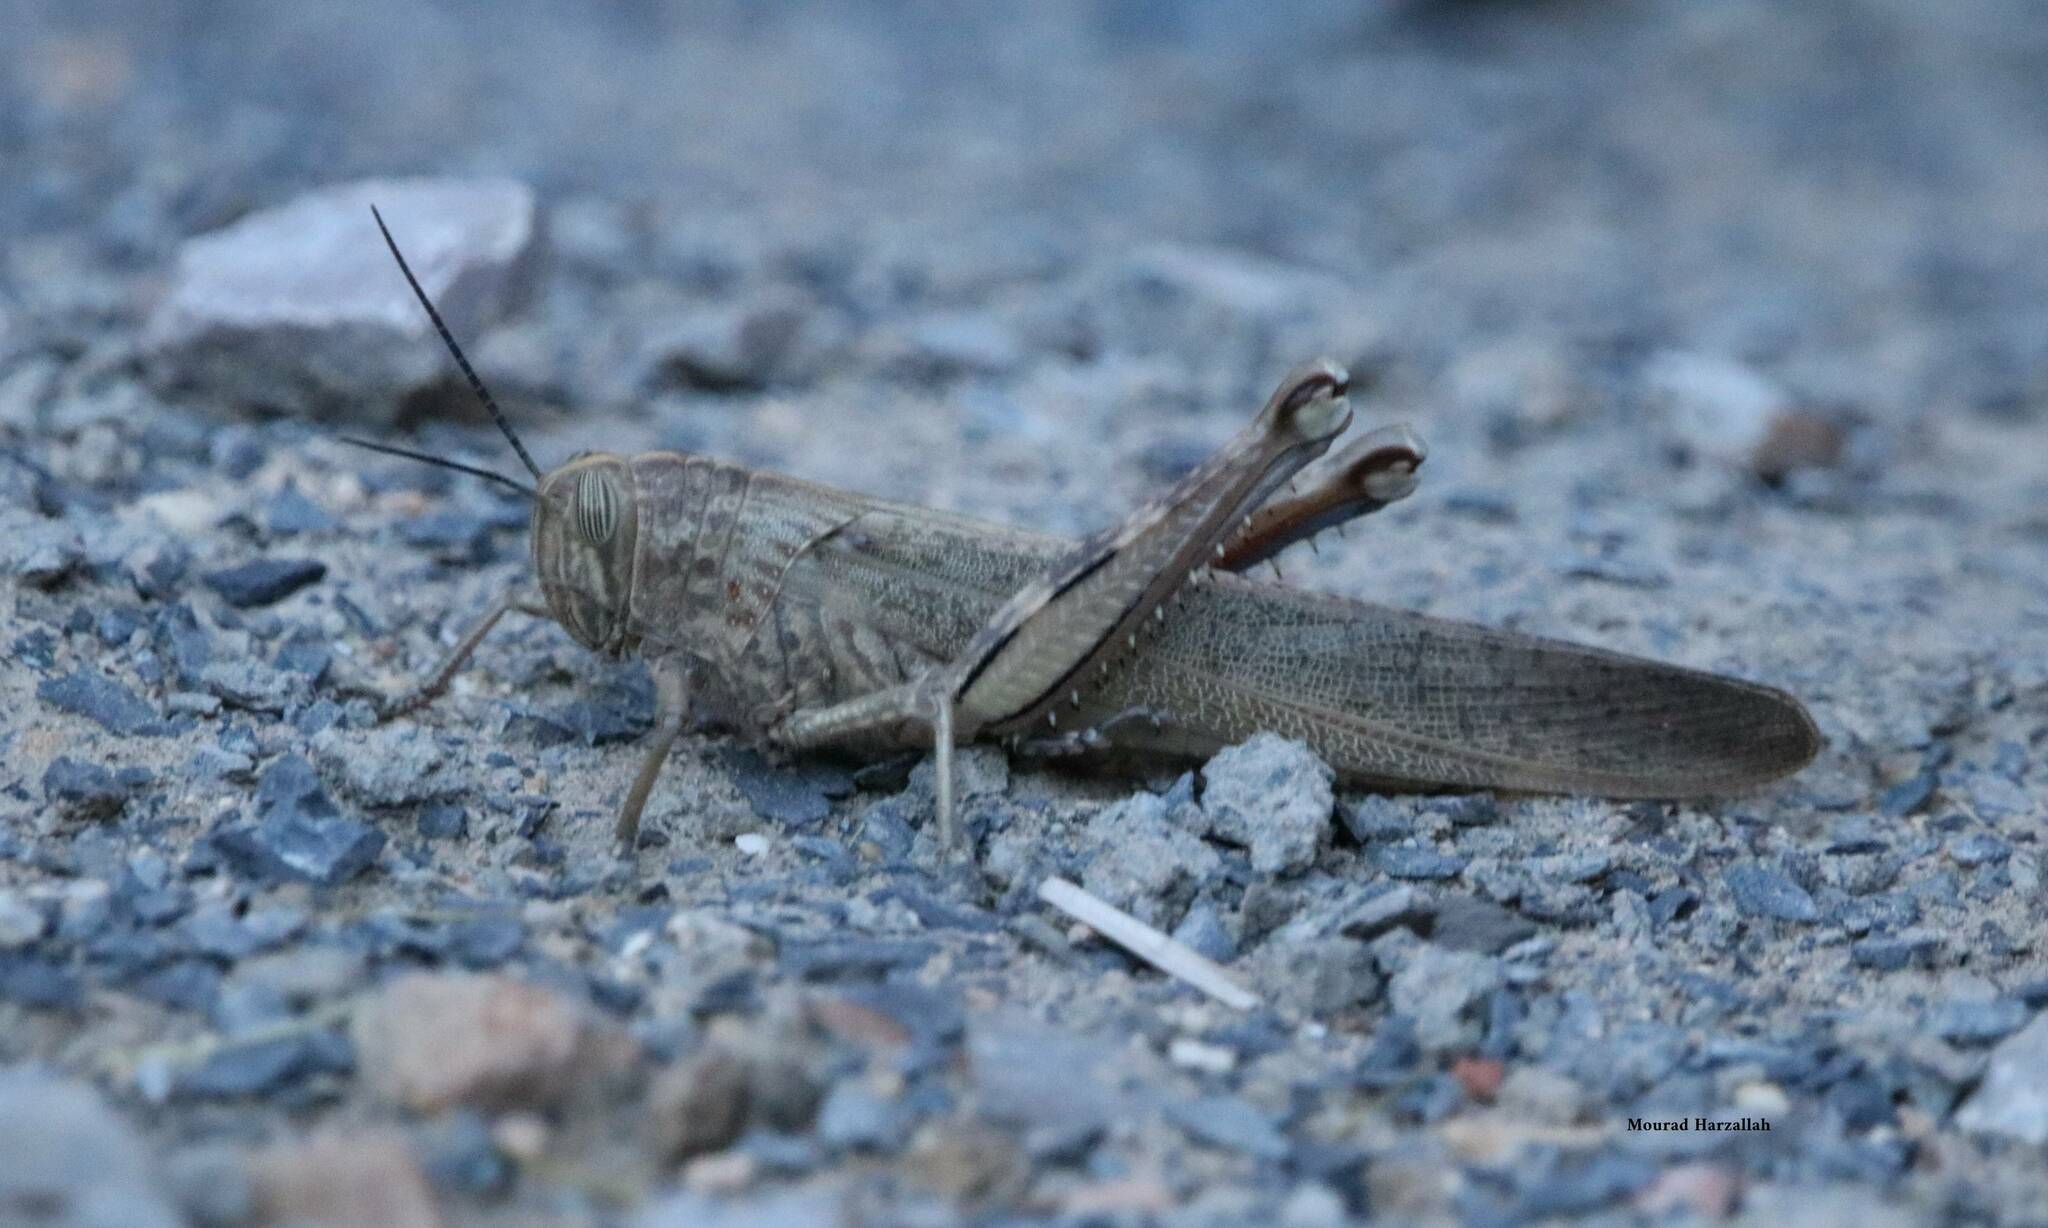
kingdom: Animalia
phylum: Arthropoda
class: Insecta
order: Orthoptera
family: Acrididae
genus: Anacridium
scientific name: Anacridium aegyptium
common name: Egyptian grasshopper
